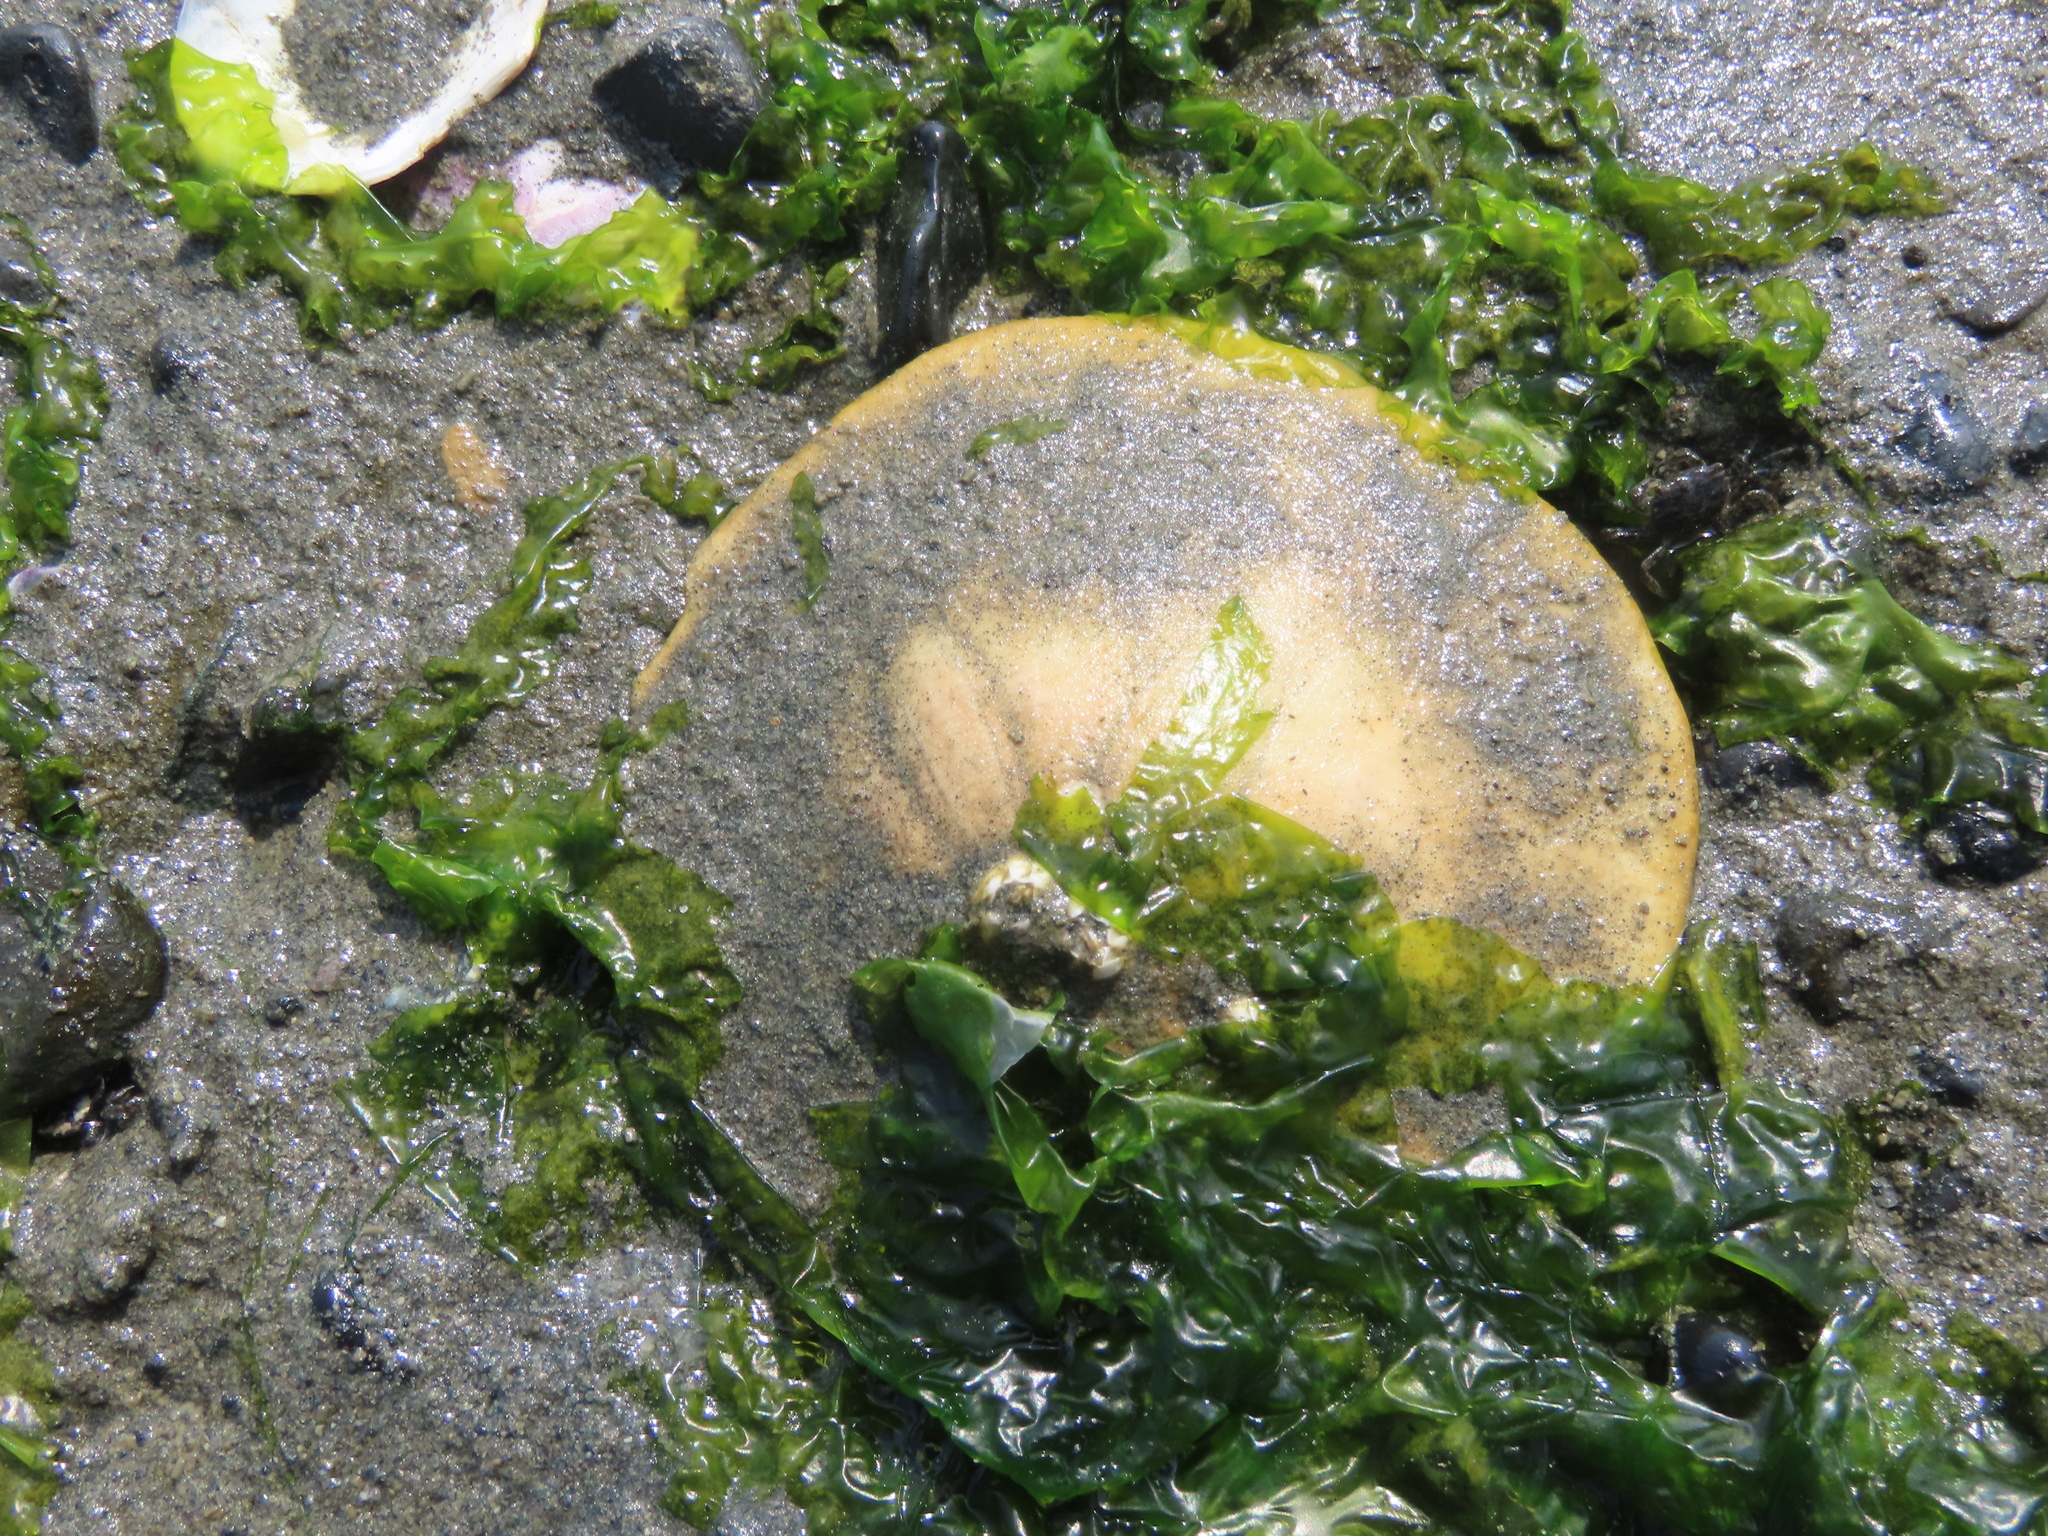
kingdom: Animalia
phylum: Echinodermata
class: Echinoidea
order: Echinolampadacea
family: Dendrasteridae
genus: Dendraster
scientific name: Dendraster excentricus
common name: Eccentric sand dollar sea urchin
